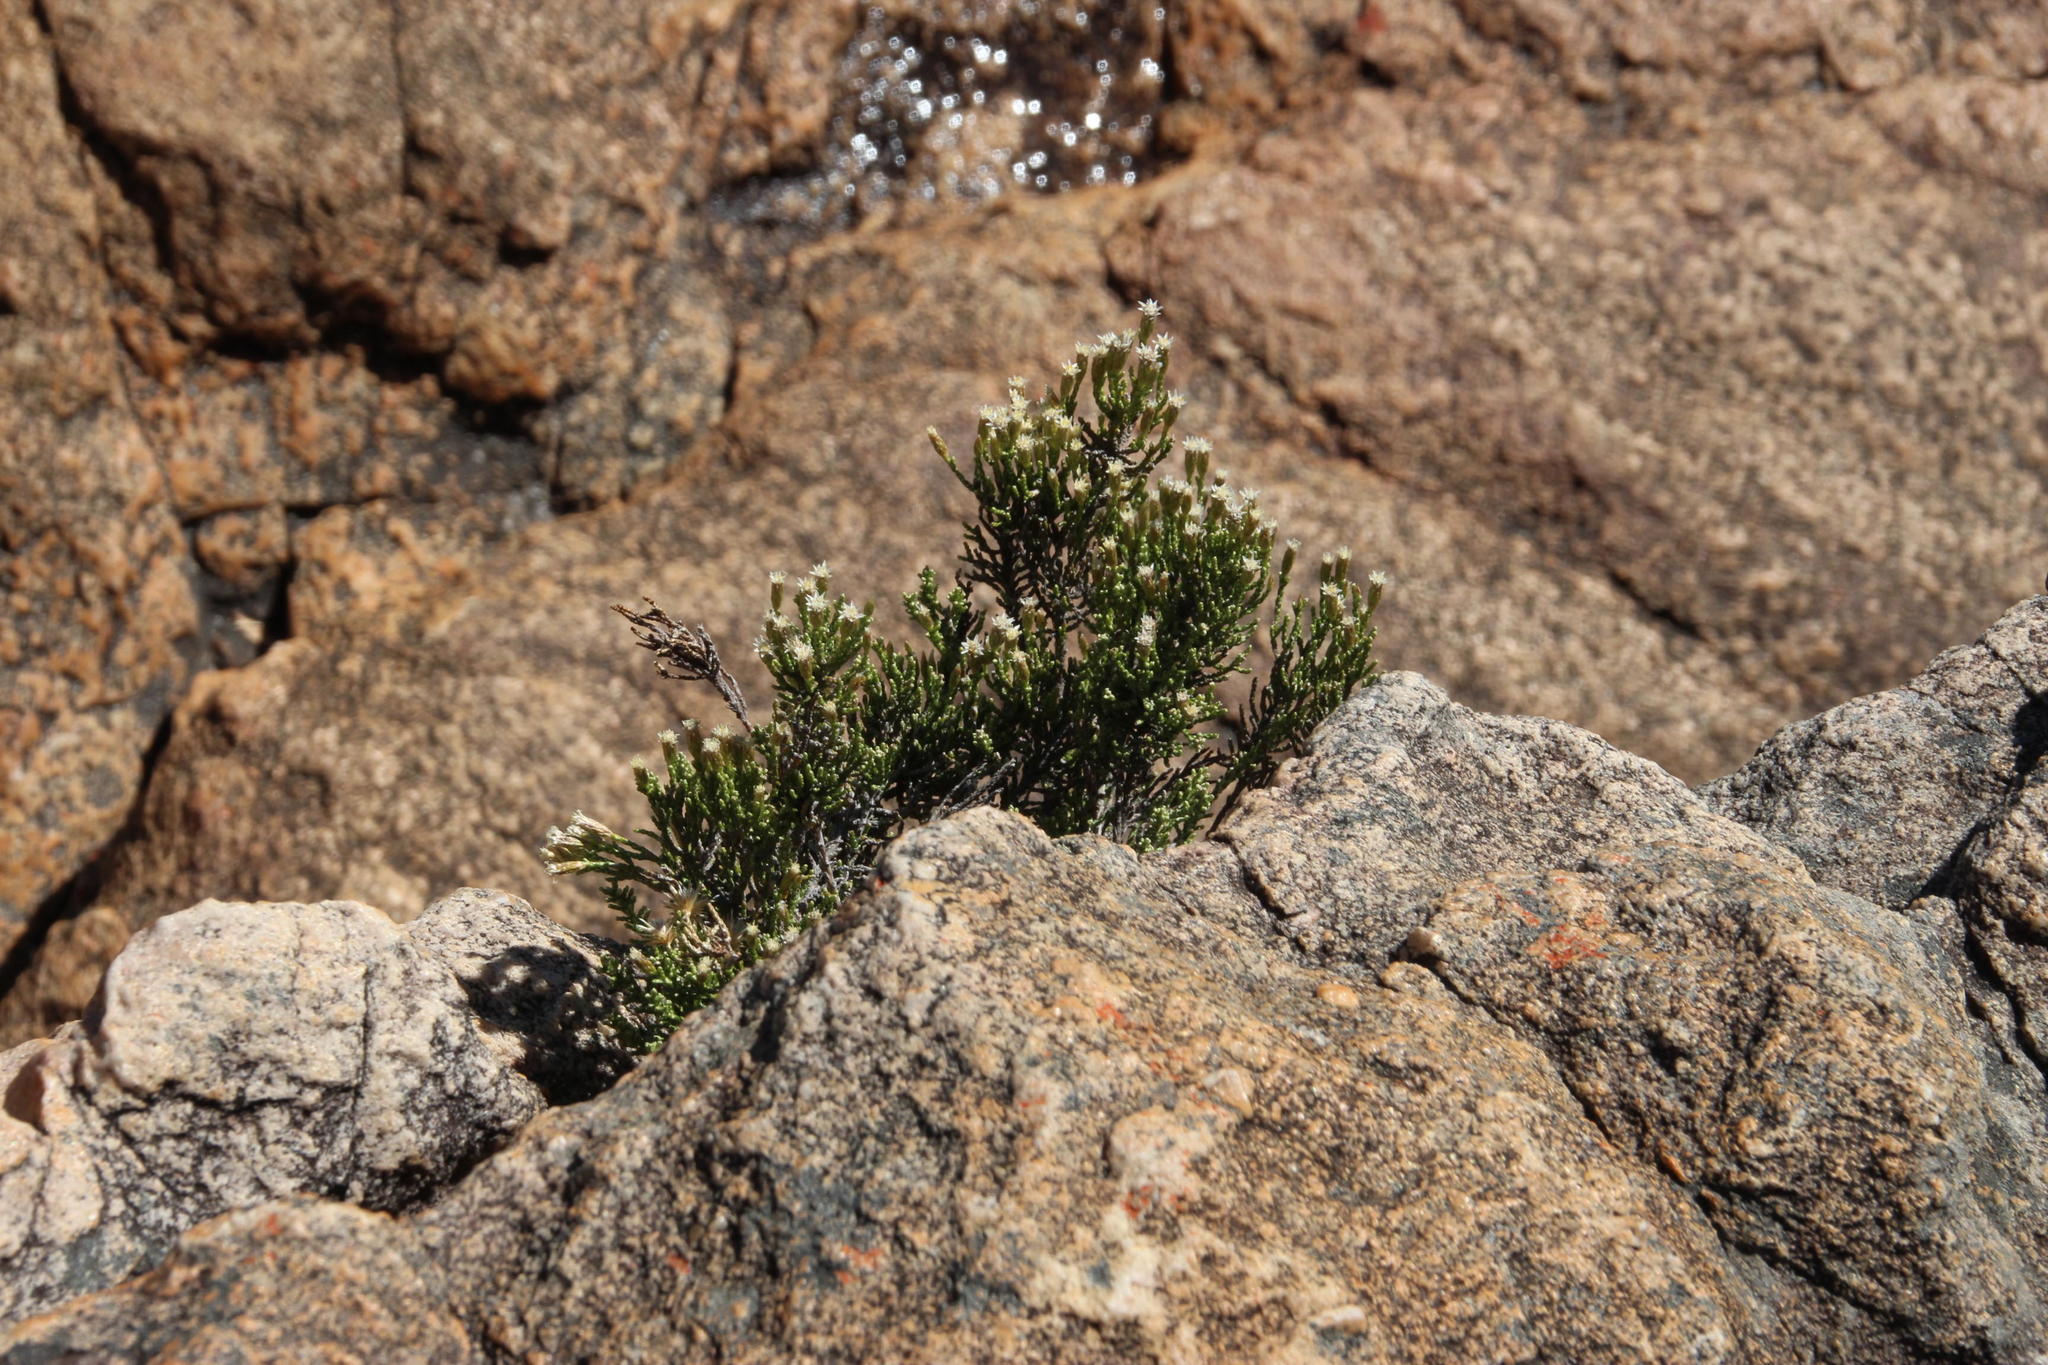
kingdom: Plantae
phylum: Tracheophyta
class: Magnoliopsida
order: Asterales
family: Asteraceae
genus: Dolichothrix
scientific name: Dolichothrix ericoides
